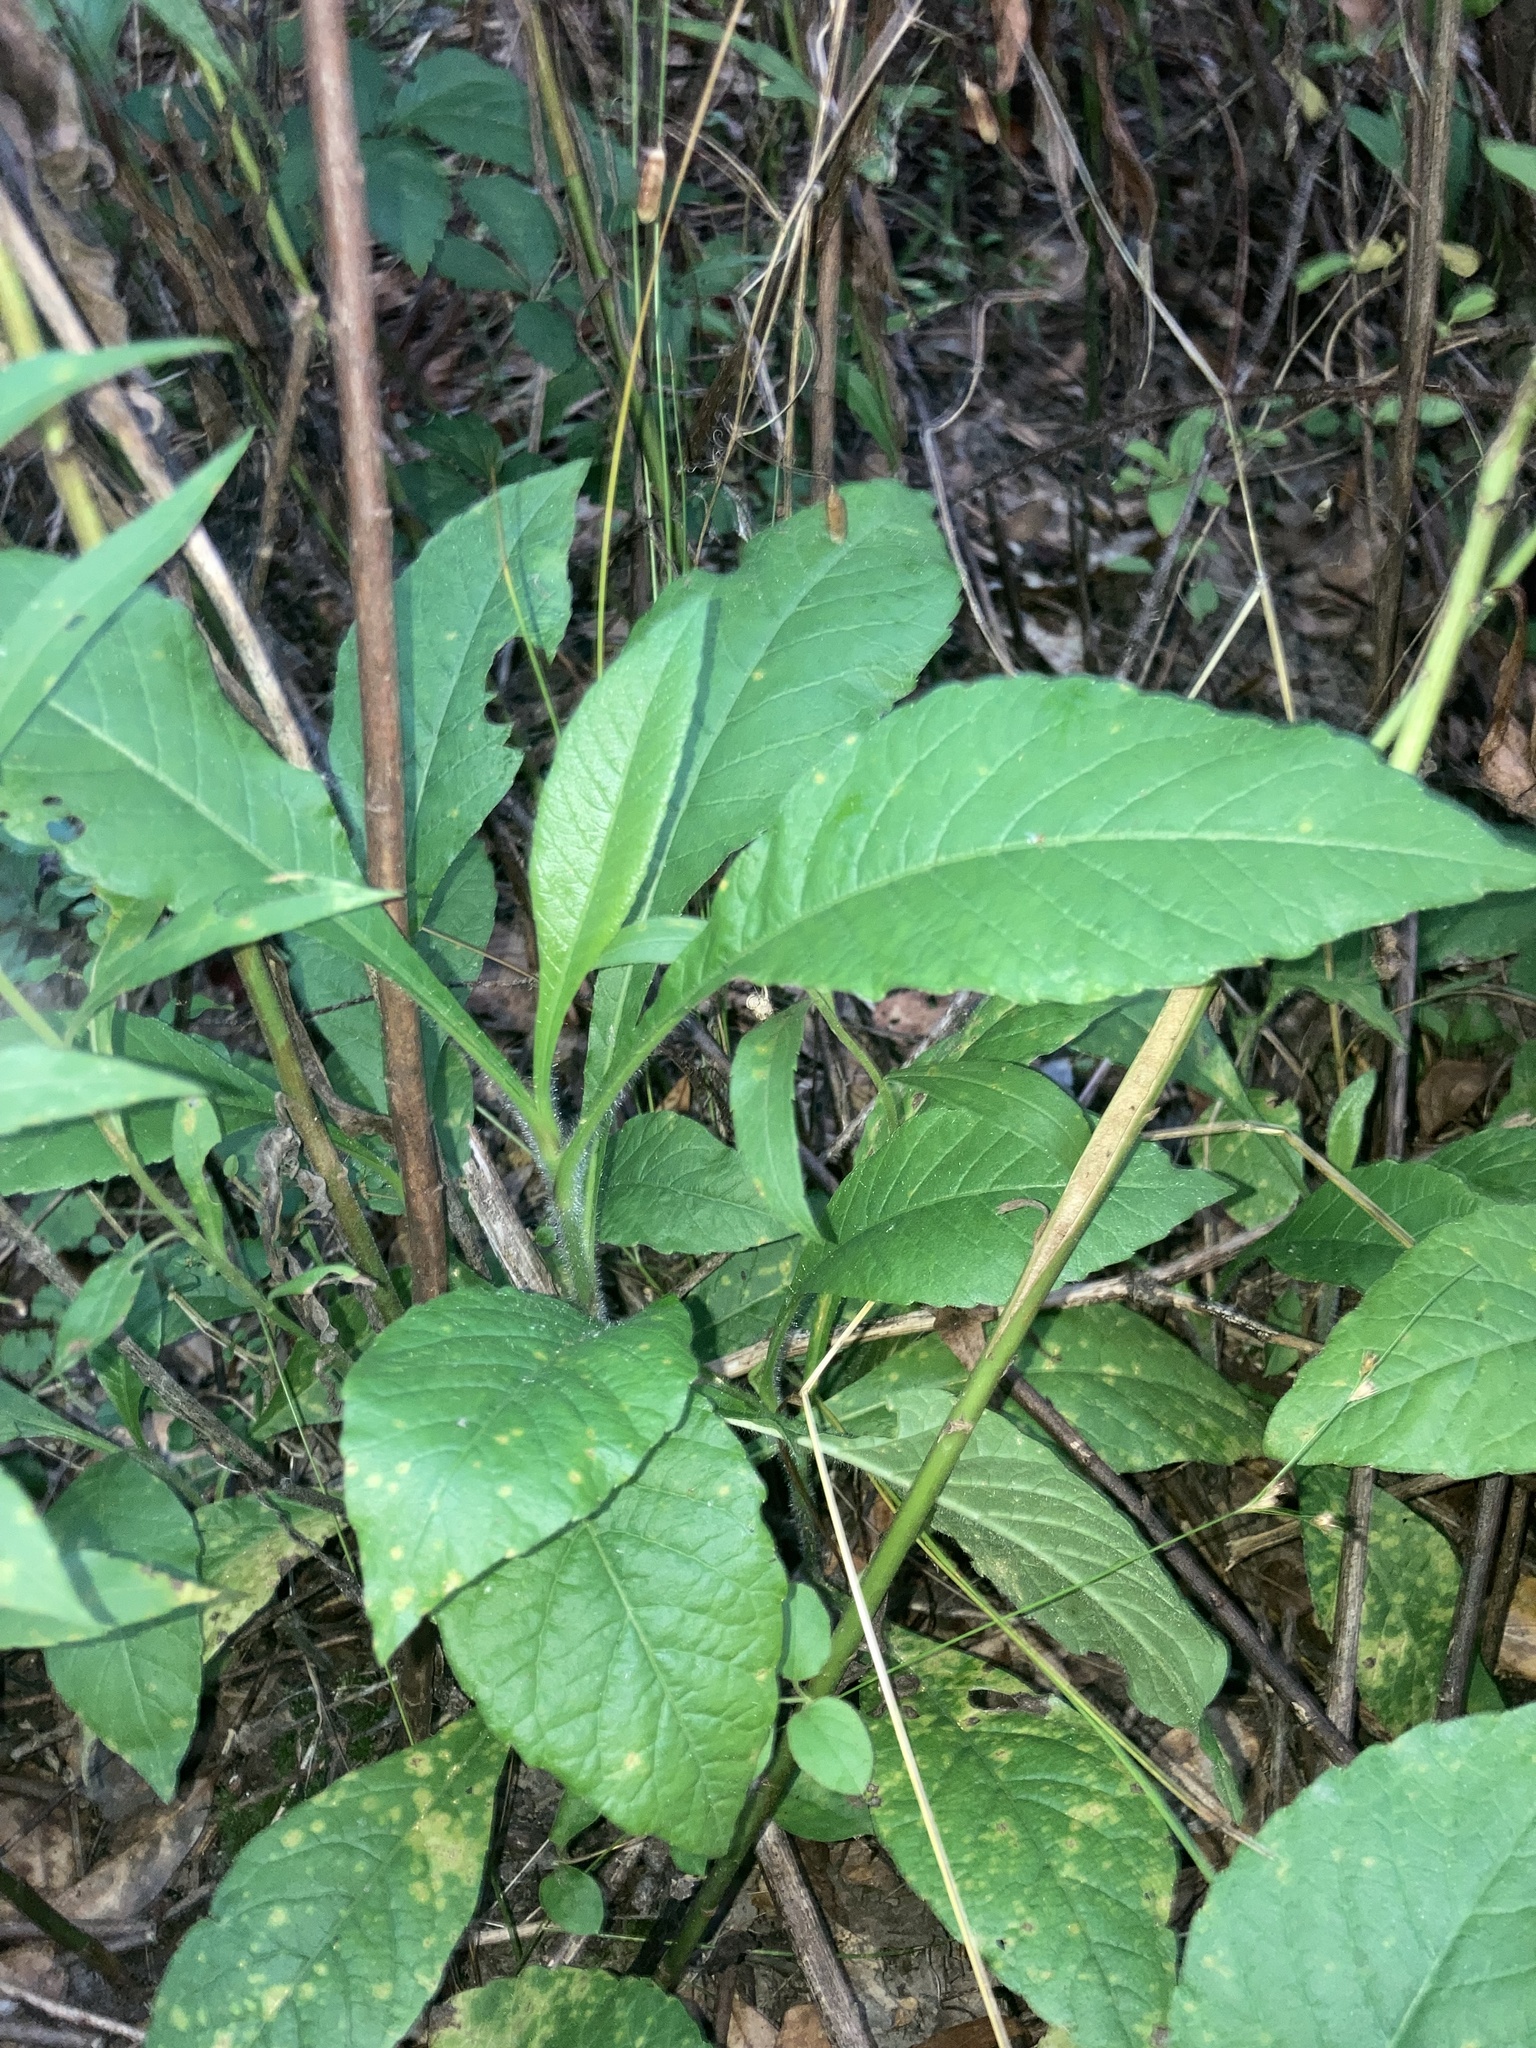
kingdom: Plantae
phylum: Tracheophyta
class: Magnoliopsida
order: Asterales
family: Asteraceae
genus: Elephantopus
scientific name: Elephantopus carolinianus
